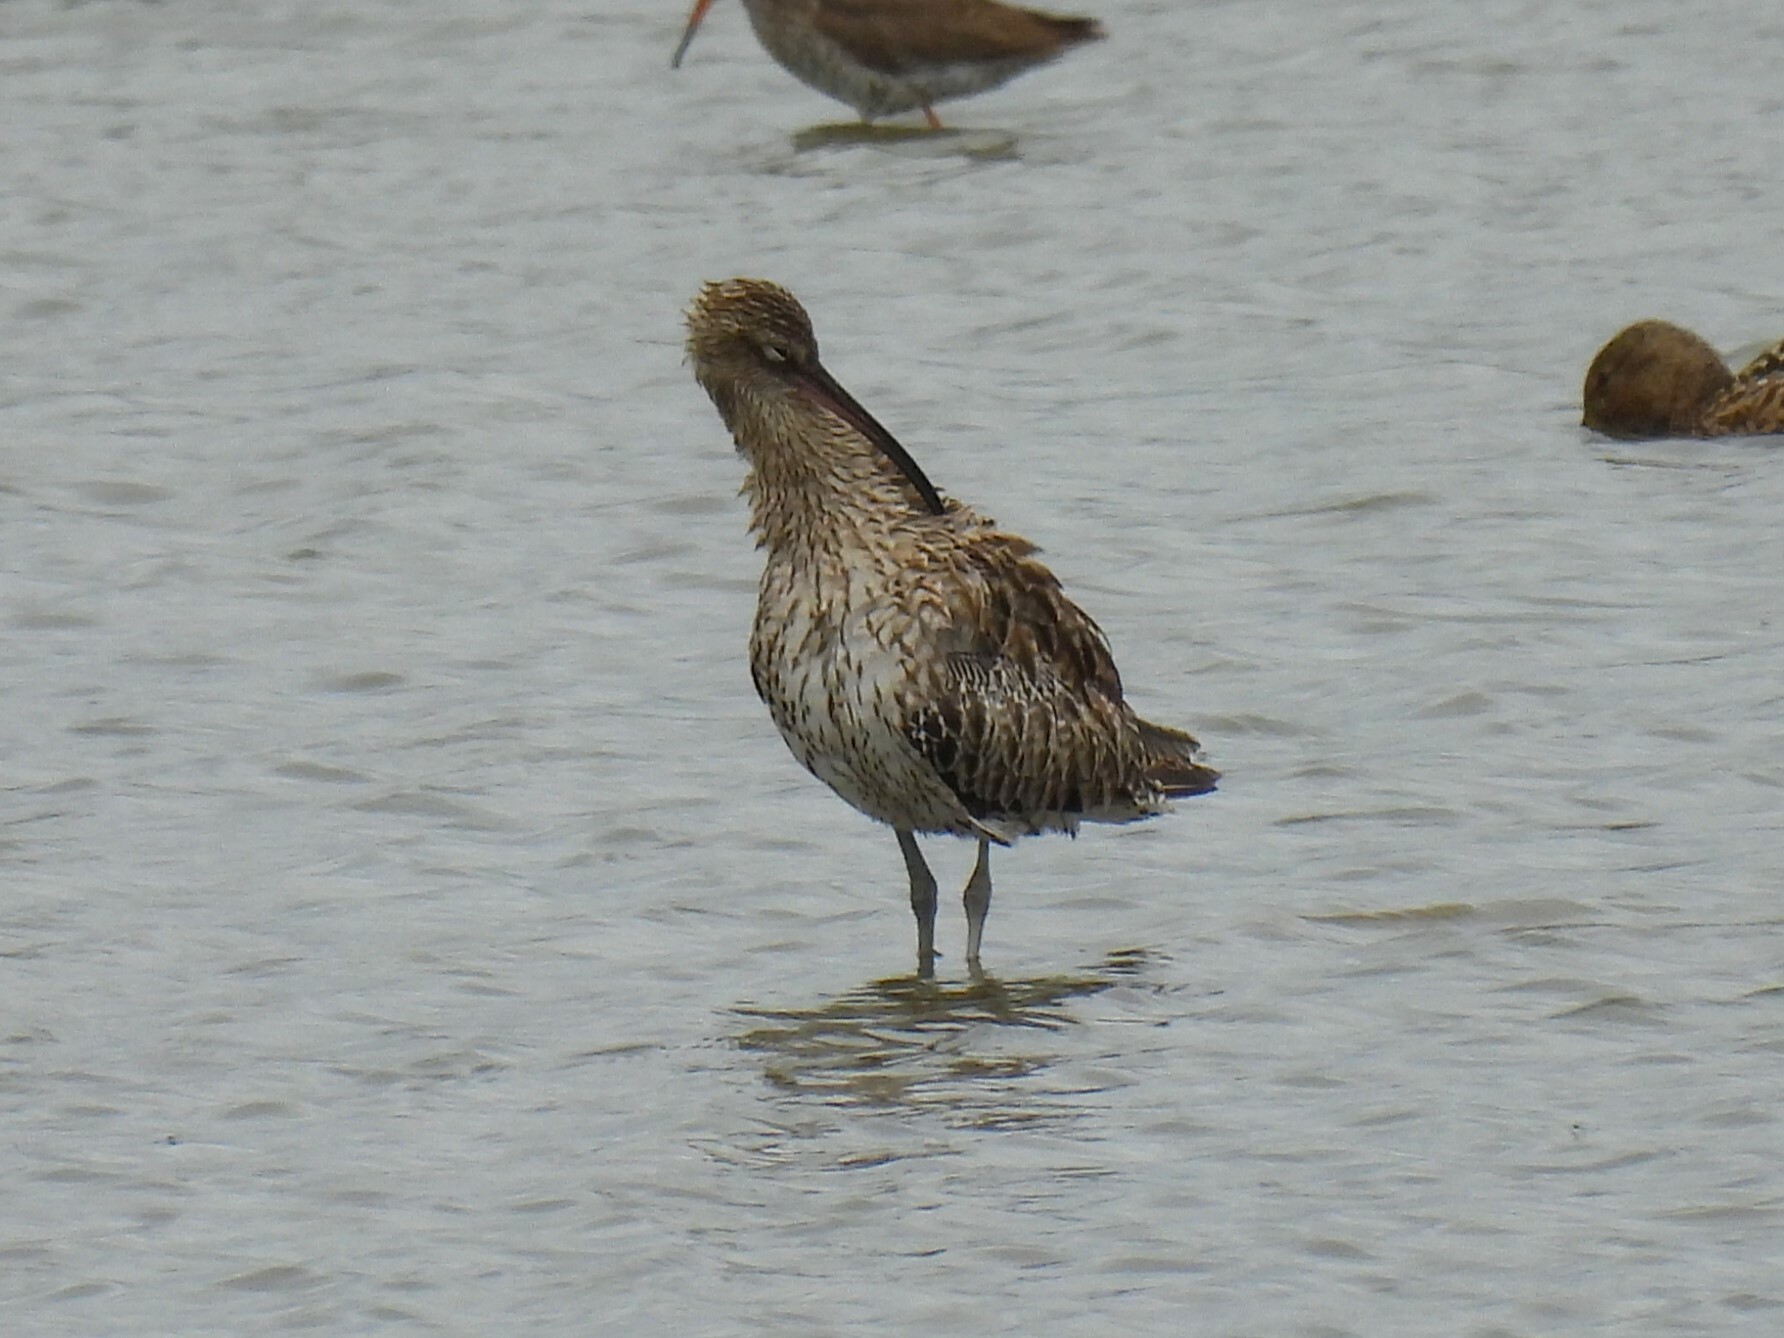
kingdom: Animalia
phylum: Chordata
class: Aves
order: Charadriiformes
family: Scolopacidae
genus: Numenius
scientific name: Numenius arquata
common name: Eurasian curlew
